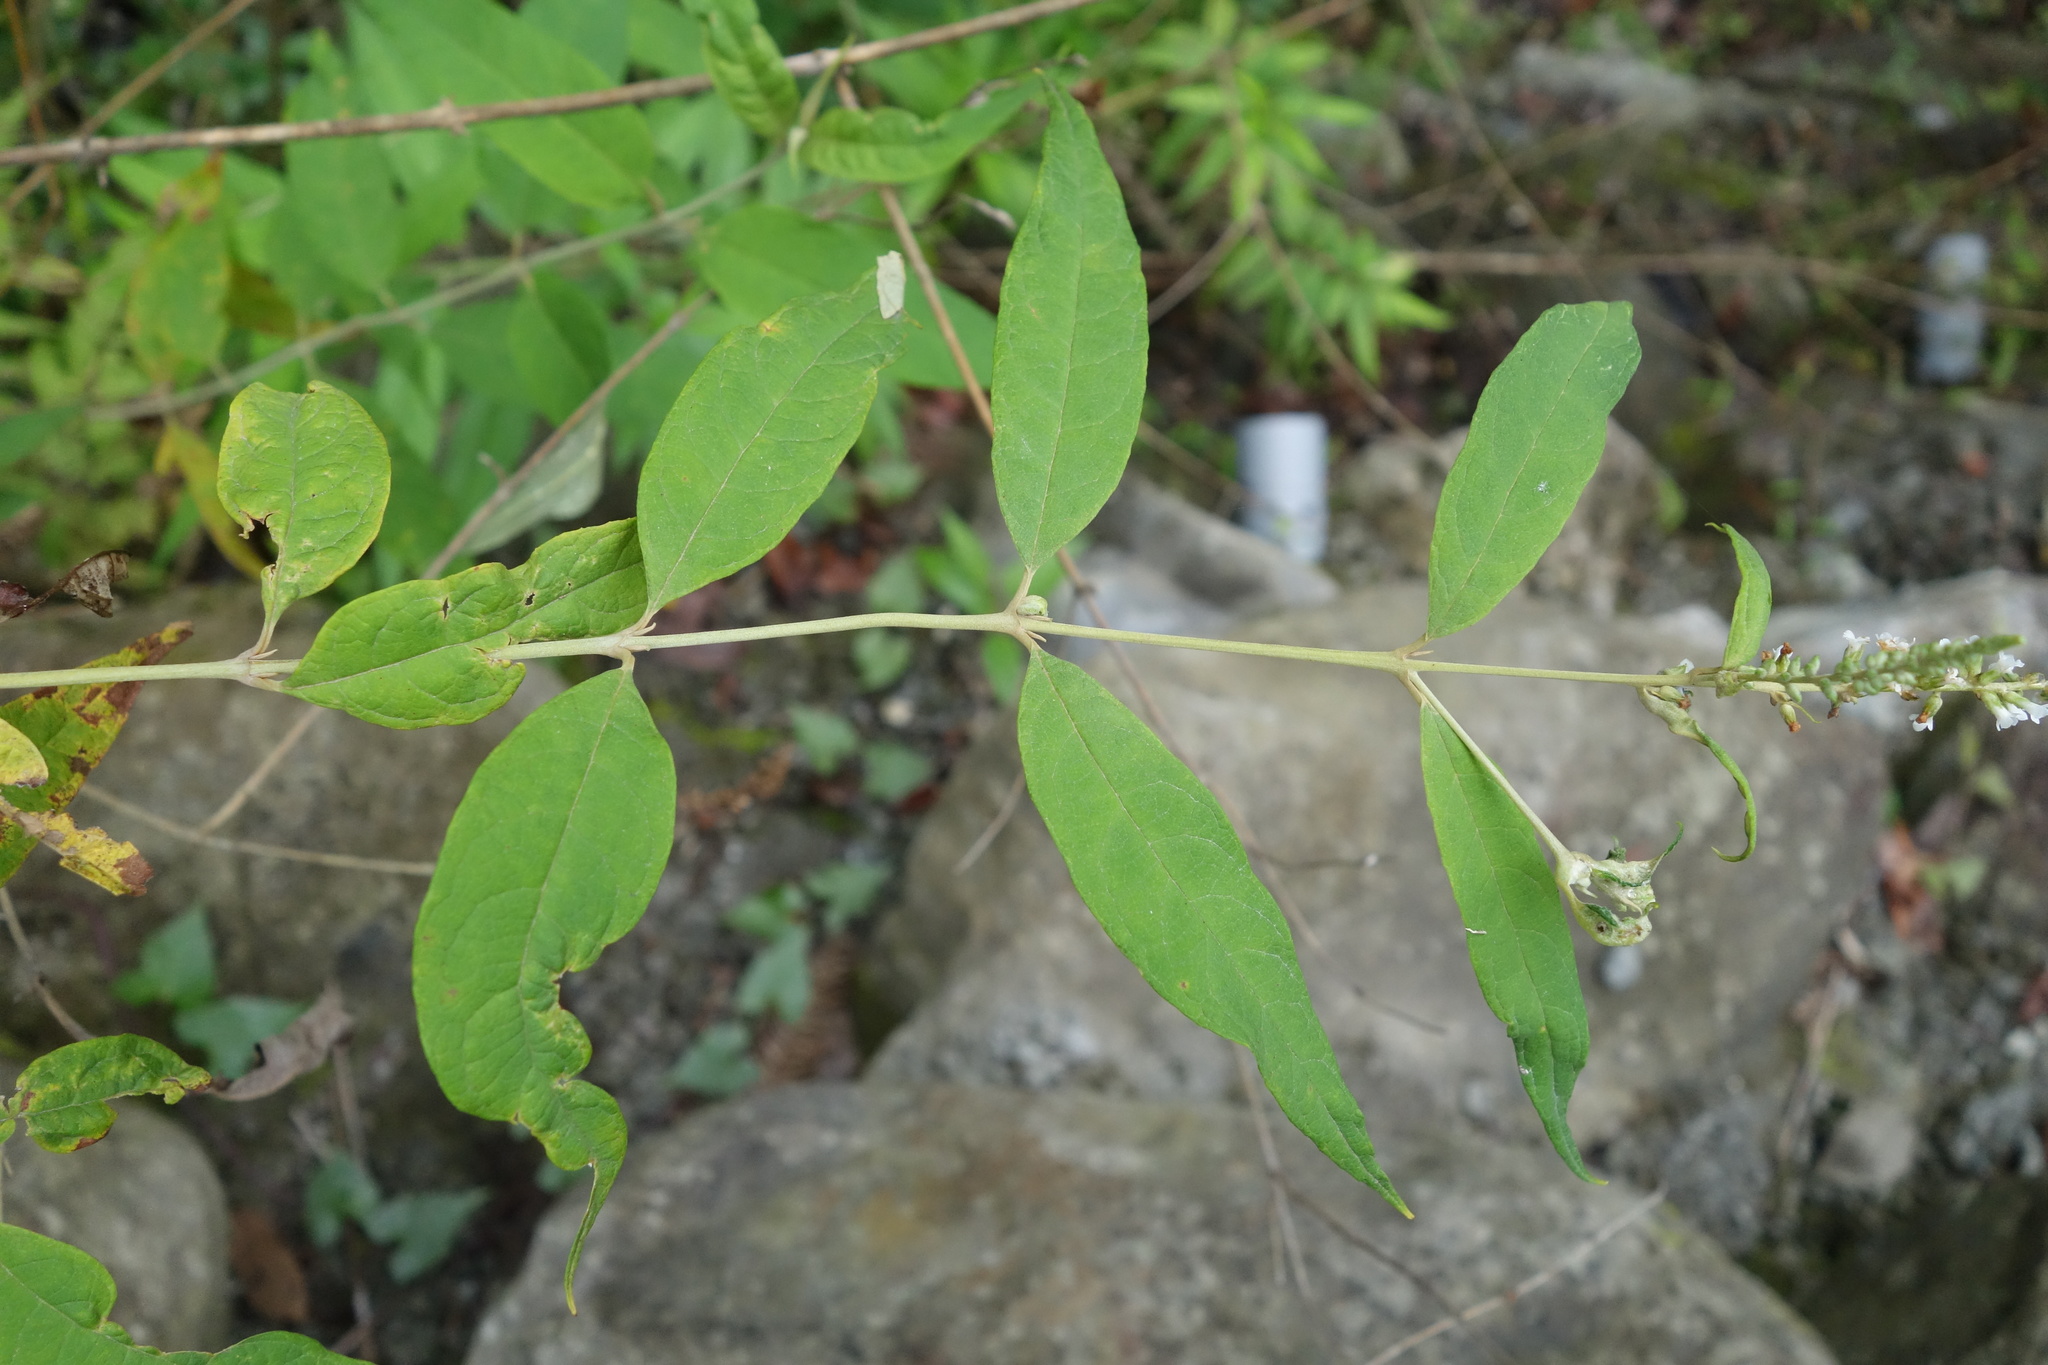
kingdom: Plantae
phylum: Tracheophyta
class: Magnoliopsida
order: Lamiales
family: Scrophulariaceae
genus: Buddleja
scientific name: Buddleja asiatica
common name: Dog tail
